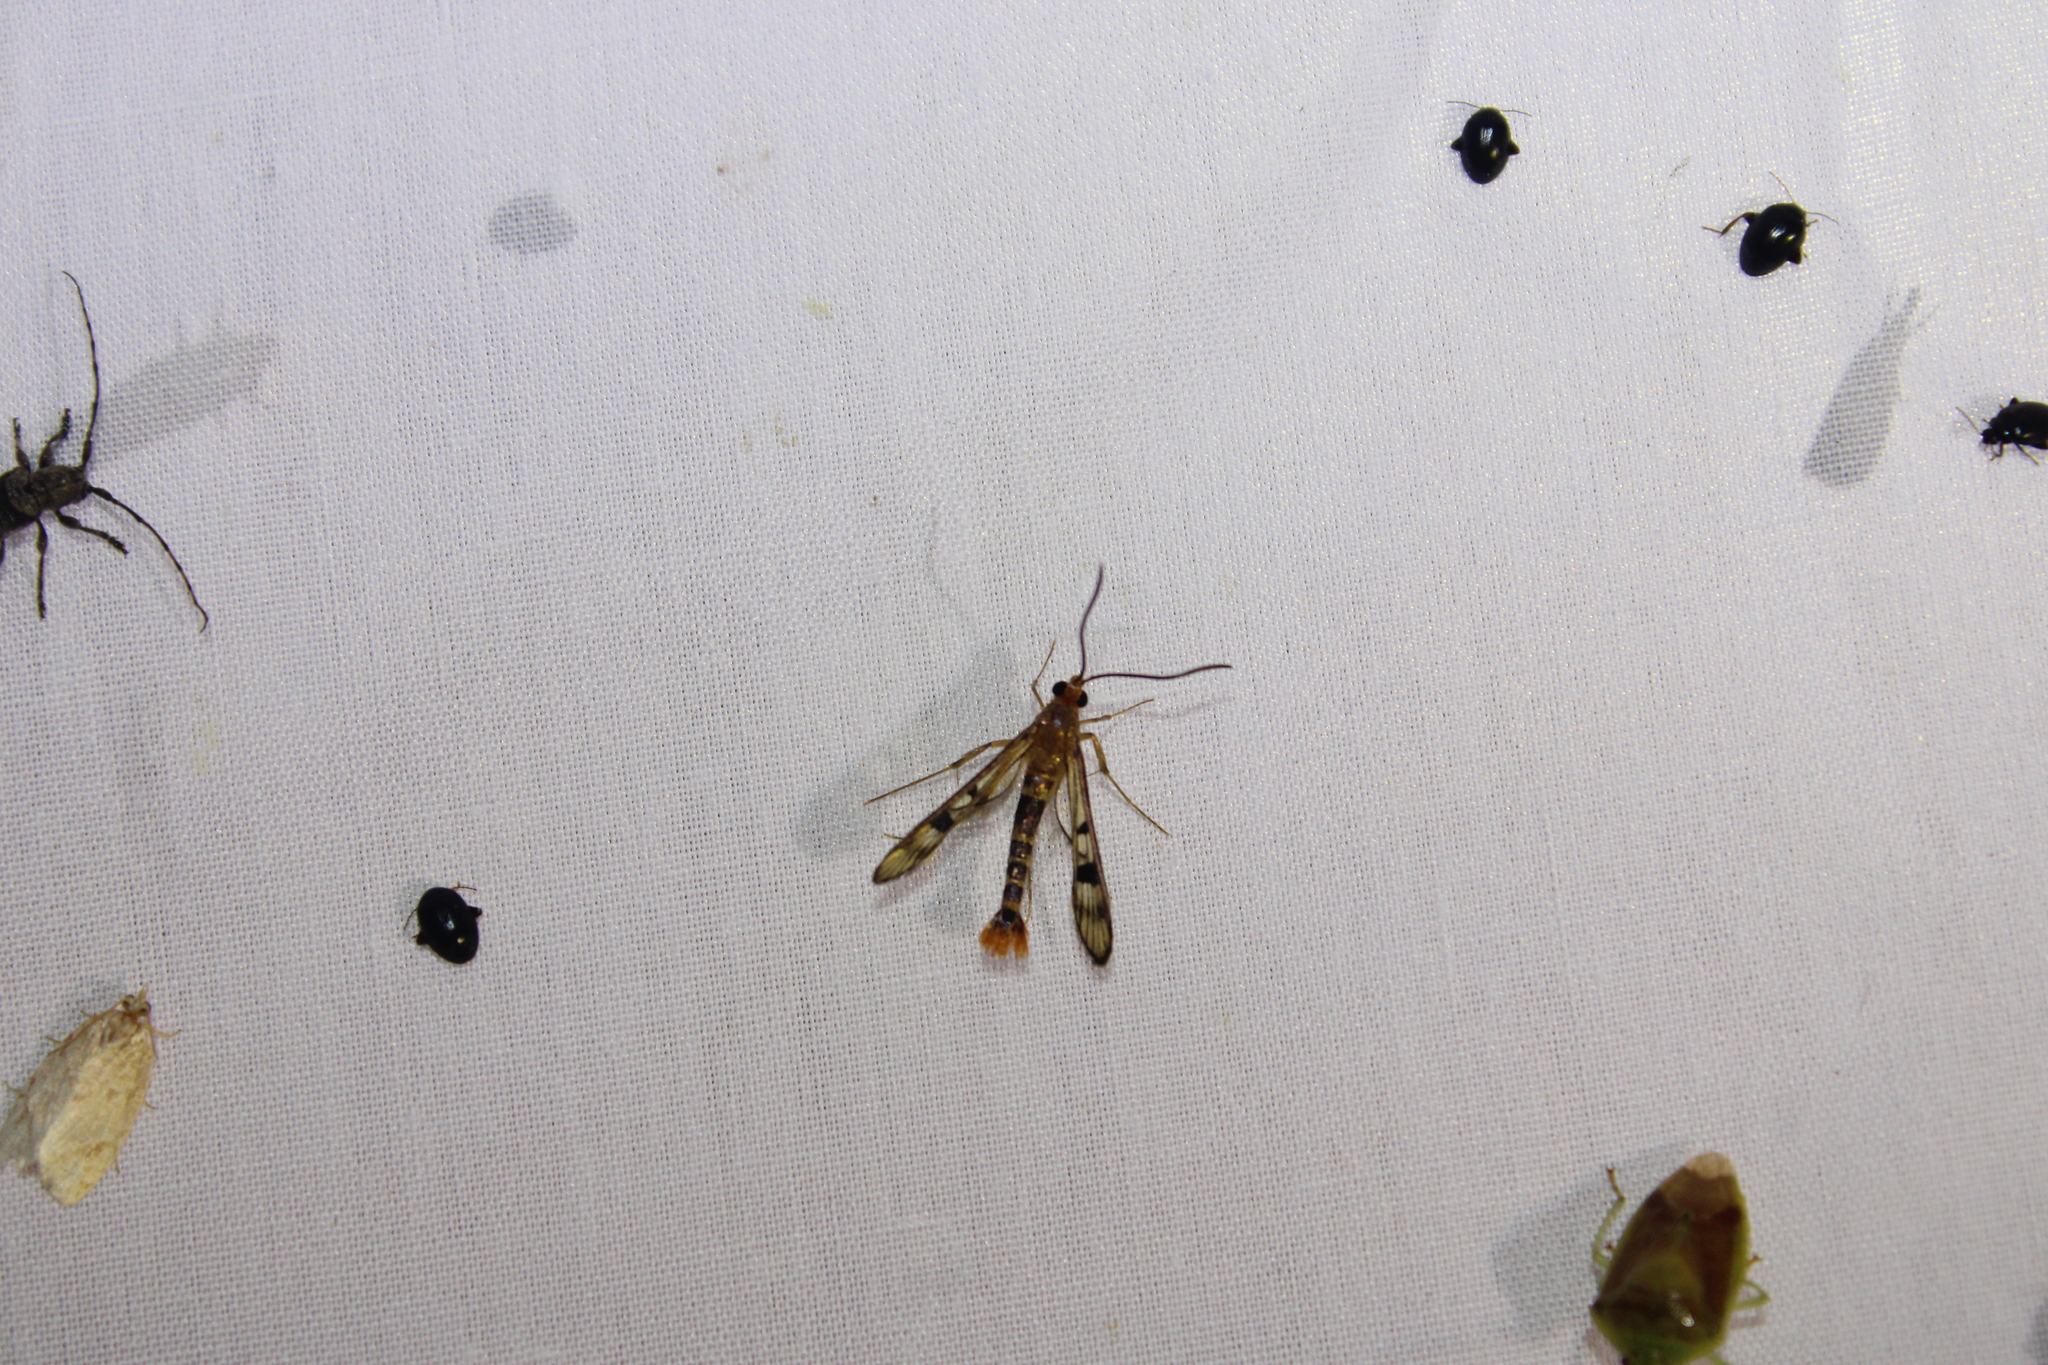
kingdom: Animalia
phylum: Arthropoda
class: Insecta
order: Lepidoptera
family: Sesiidae
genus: Synanthedon
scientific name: Synanthedon acerni
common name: Maple callus borer moth
